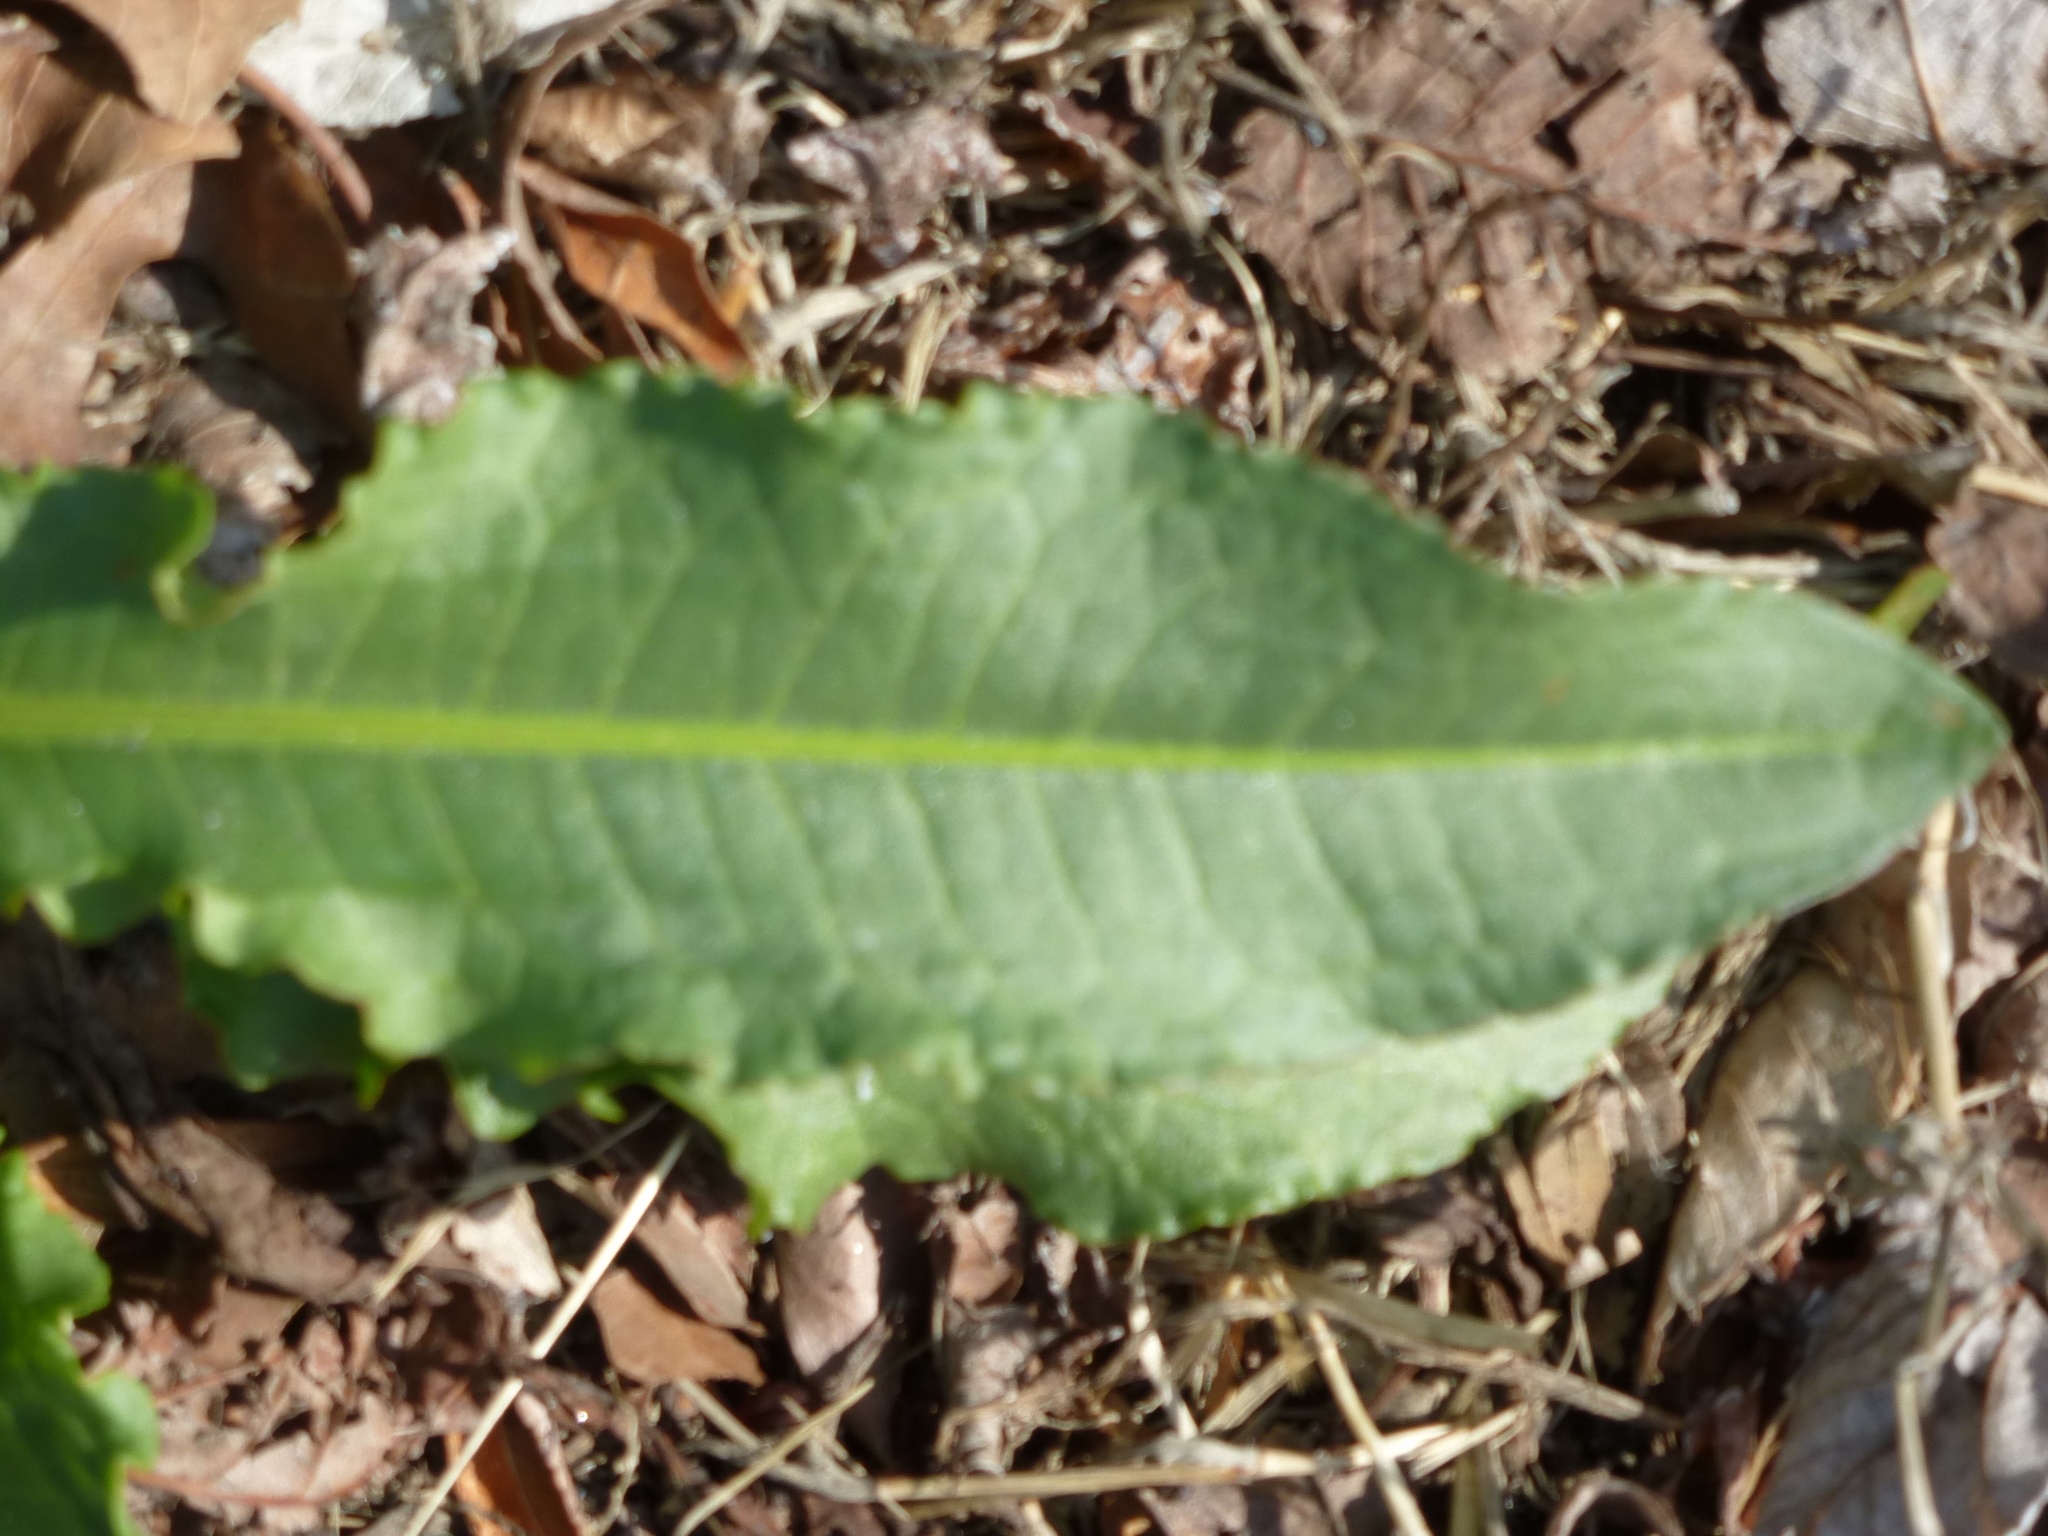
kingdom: Plantae
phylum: Tracheophyta
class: Magnoliopsida
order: Caryophyllales
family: Polygonaceae
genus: Rumex
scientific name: Rumex crispus
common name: Curled dock
